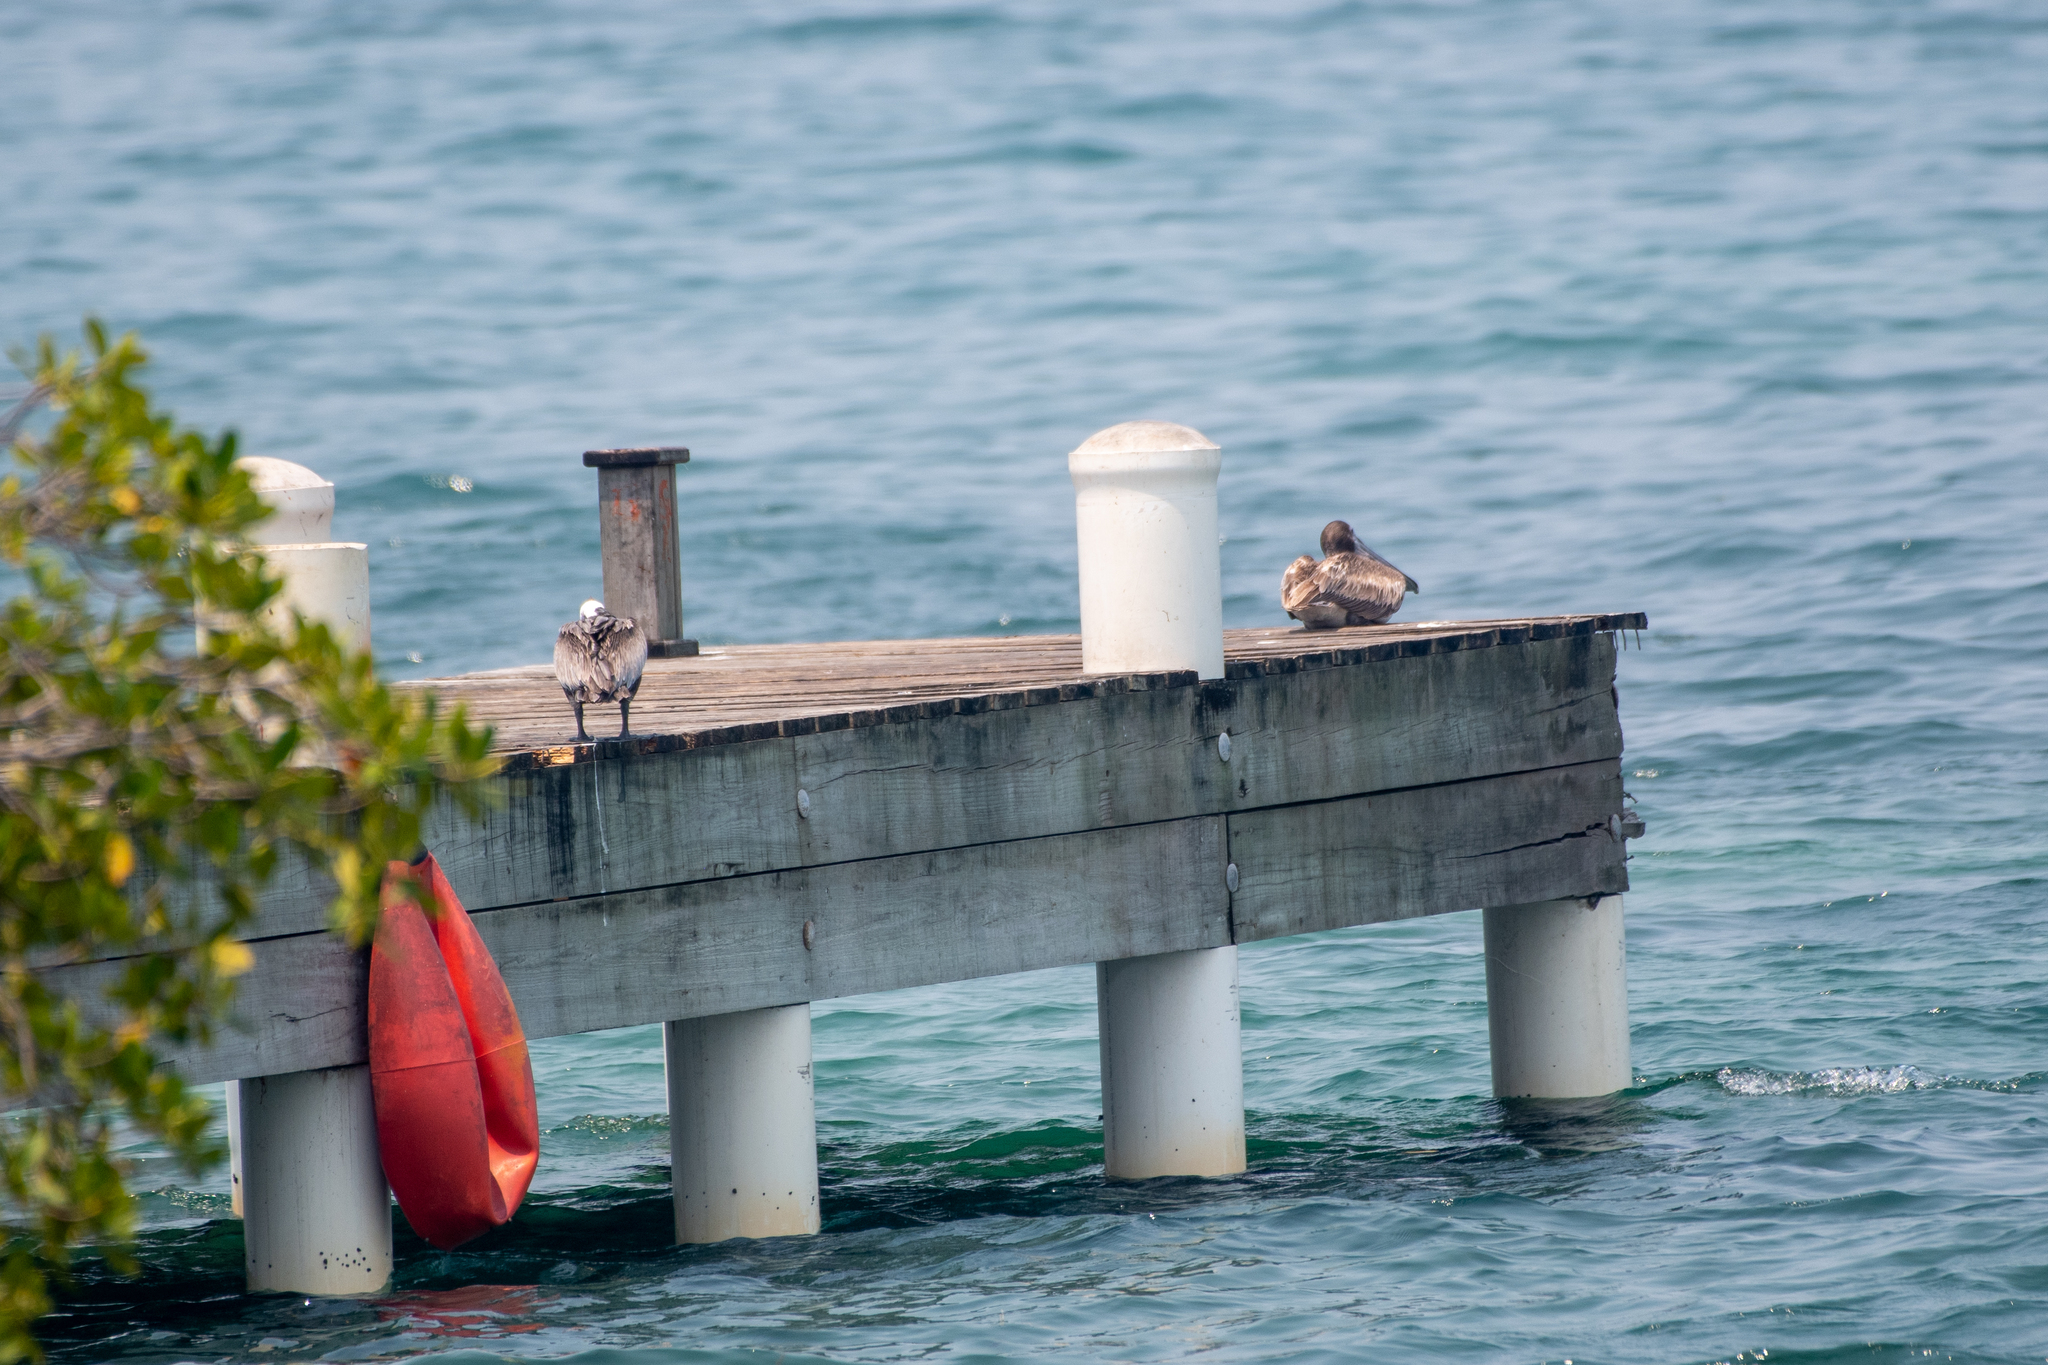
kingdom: Animalia
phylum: Chordata
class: Aves
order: Pelecaniformes
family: Pelecanidae
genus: Pelecanus
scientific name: Pelecanus occidentalis
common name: Brown pelican
